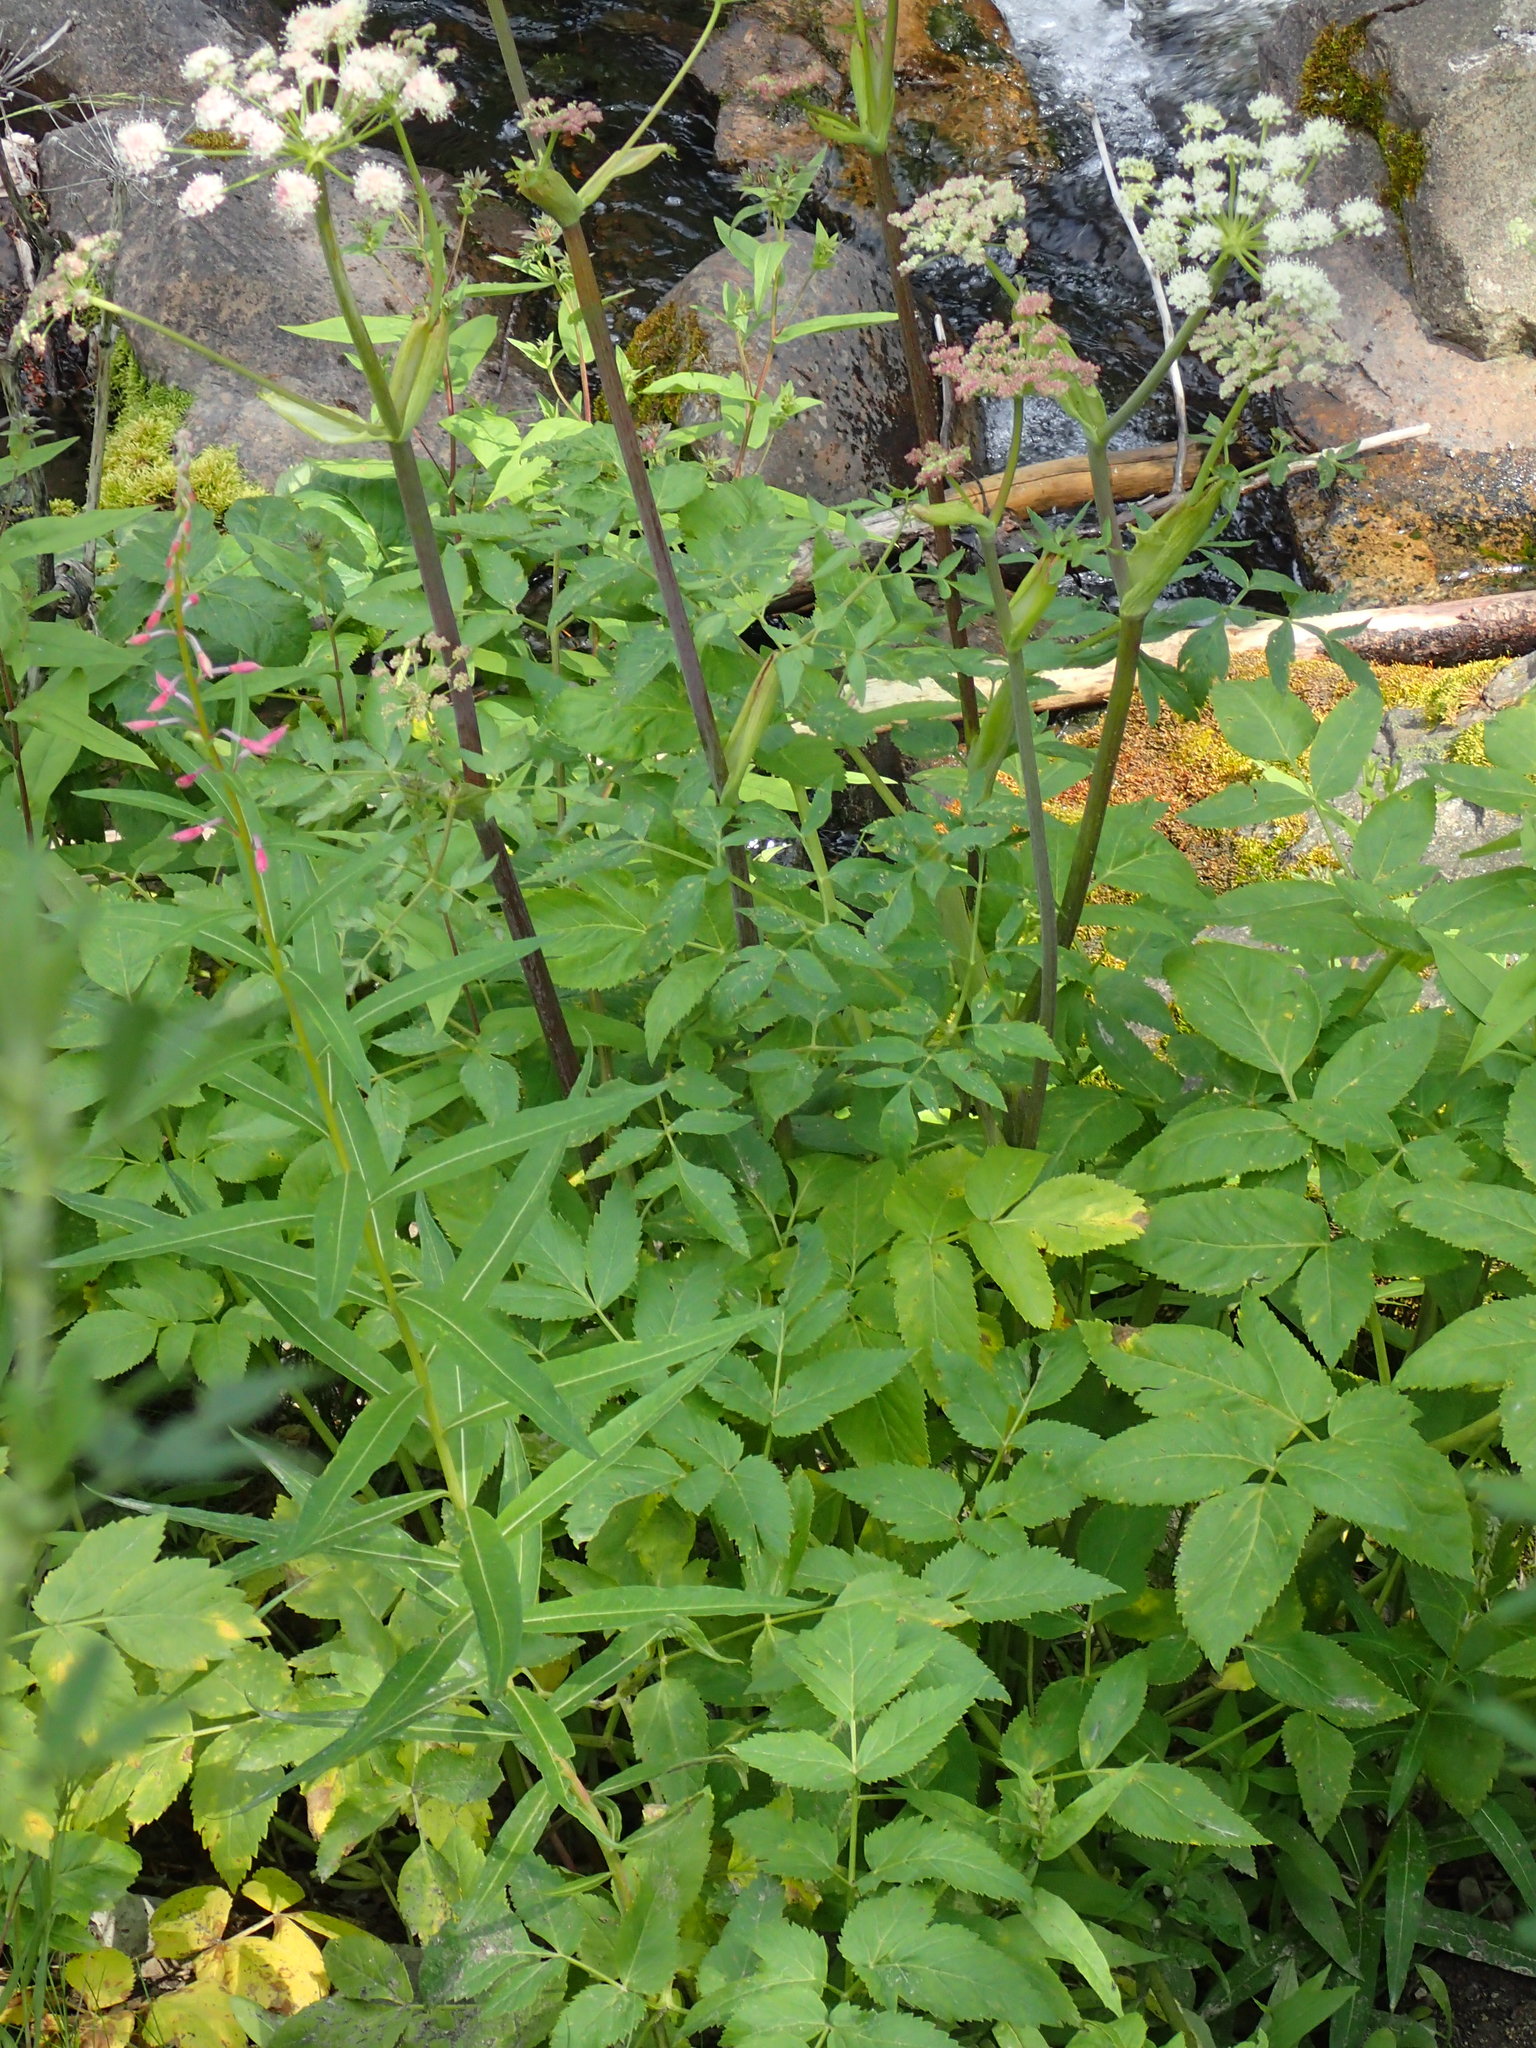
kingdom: Plantae
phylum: Tracheophyta
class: Magnoliopsida
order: Apiales
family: Apiaceae
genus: Angelica
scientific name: Angelica arguta
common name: Lyall's angelica
